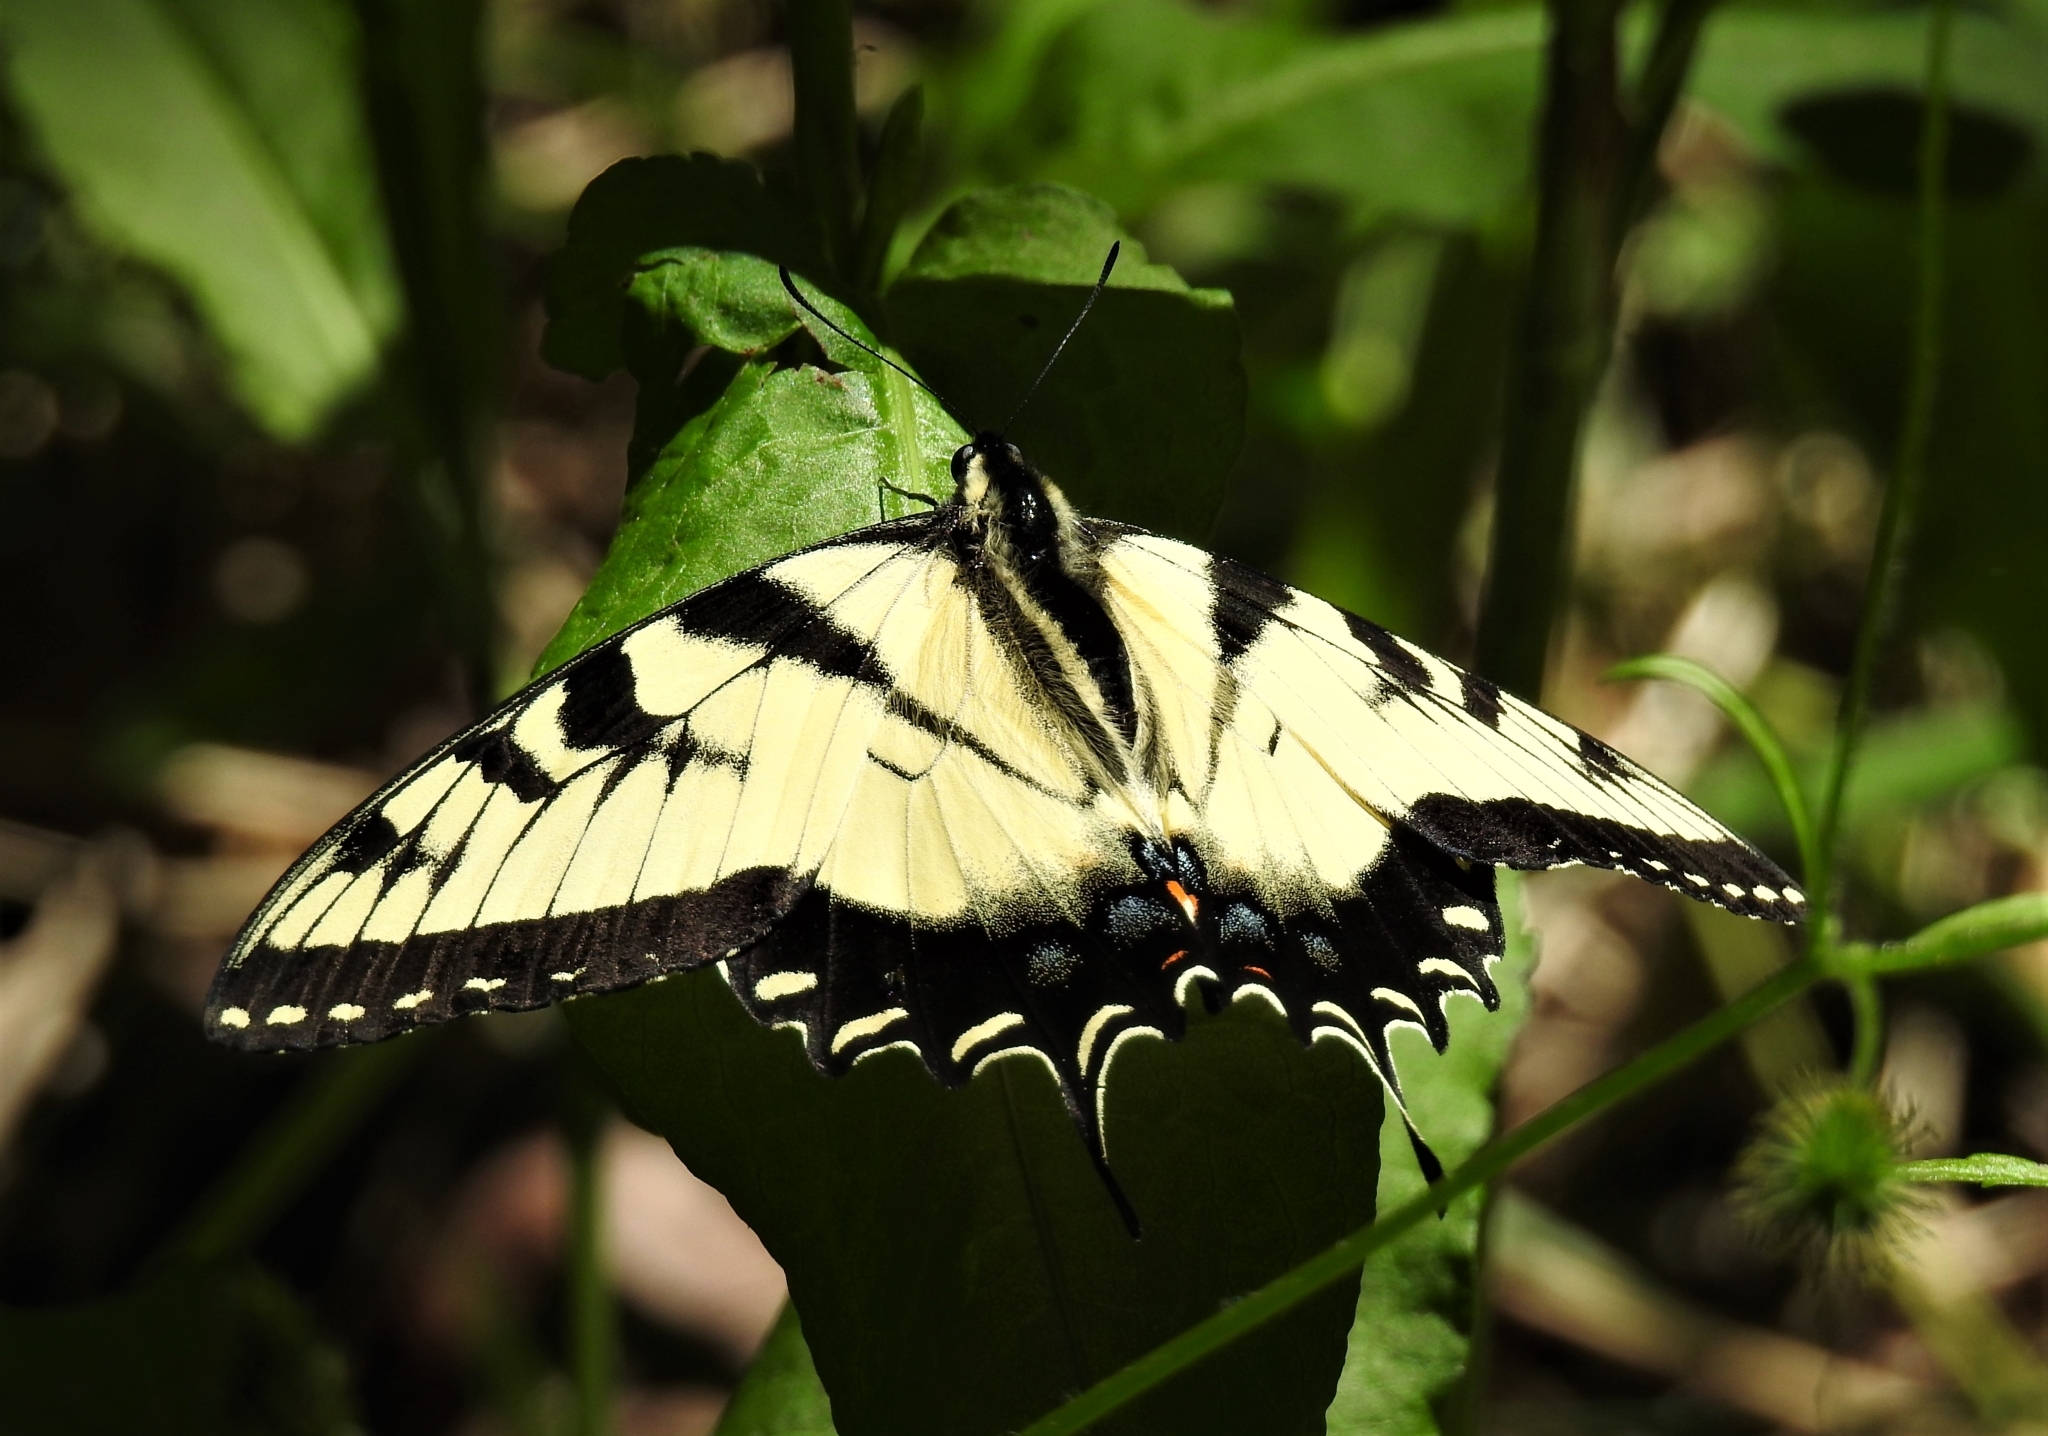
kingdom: Animalia
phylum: Arthropoda
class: Insecta
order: Lepidoptera
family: Papilionidae
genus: Papilio
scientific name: Papilio glaucus
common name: Tiger swallowtail
